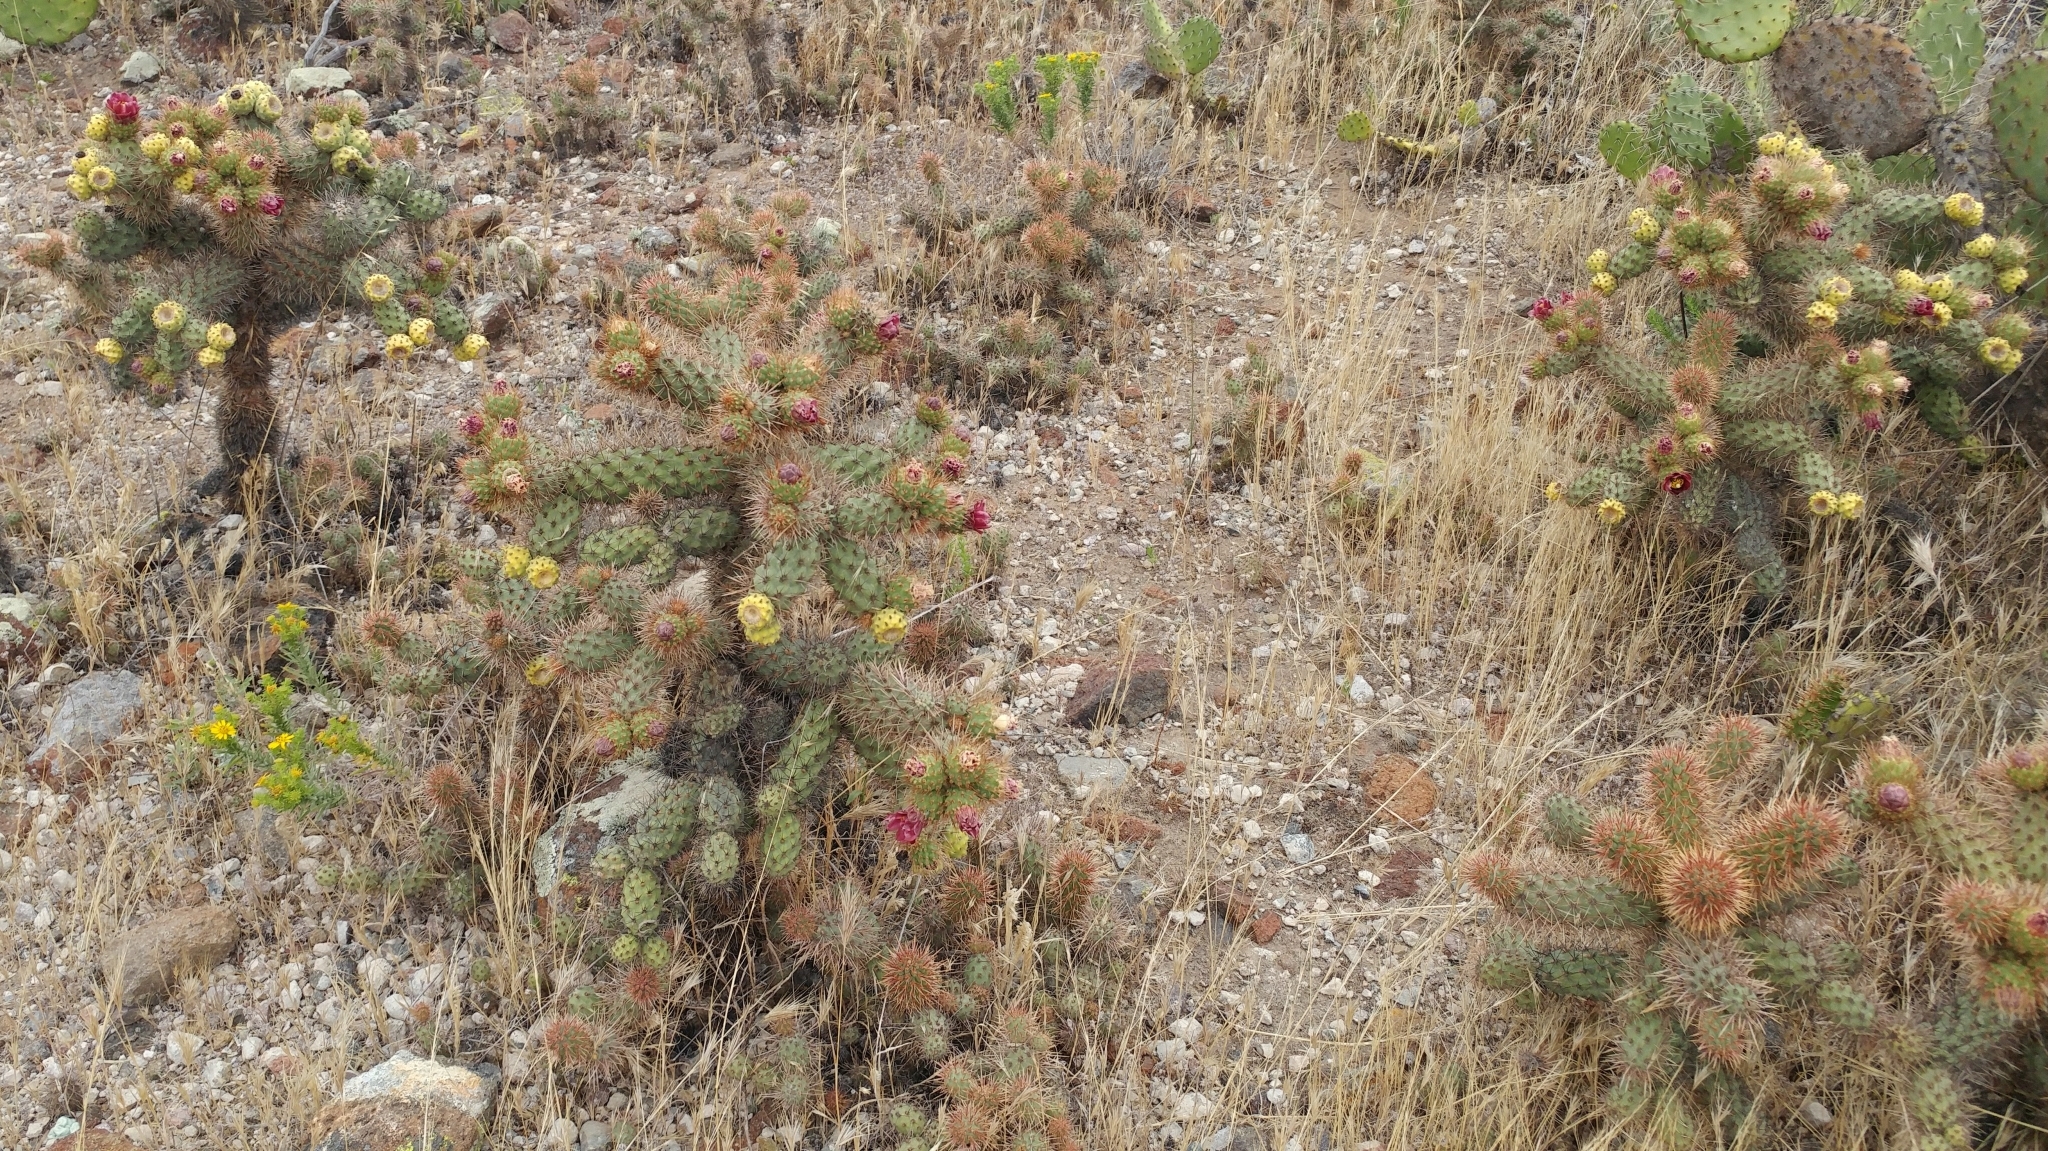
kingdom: Plantae
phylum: Tracheophyta
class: Magnoliopsida
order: Caryophyllales
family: Cactaceae
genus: Cylindropuntia
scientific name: Cylindropuntia prolifera
